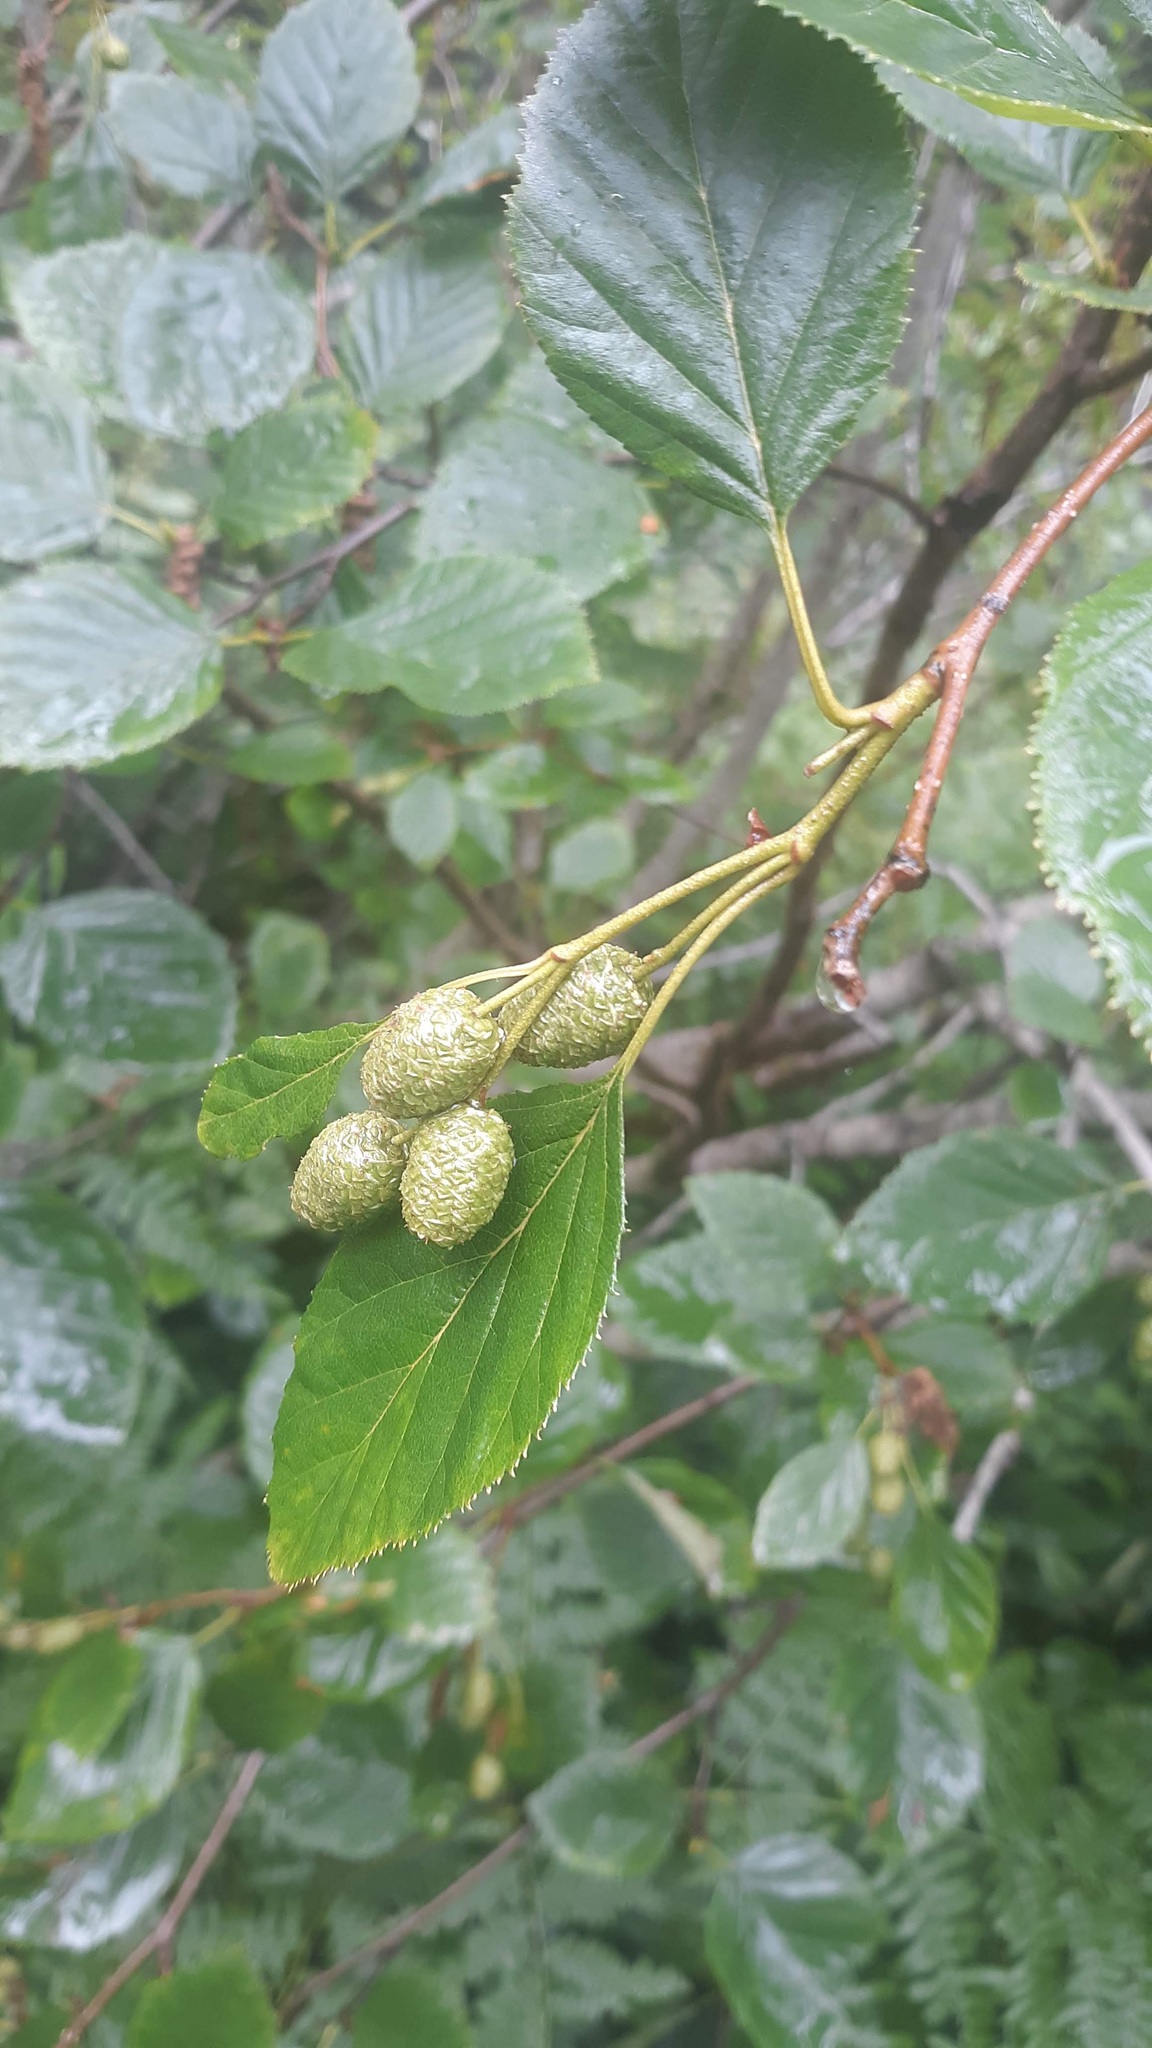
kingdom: Plantae
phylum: Tracheophyta
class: Magnoliopsida
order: Fagales
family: Betulaceae
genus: Alnus
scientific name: Alnus alnobetula
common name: Green alder
